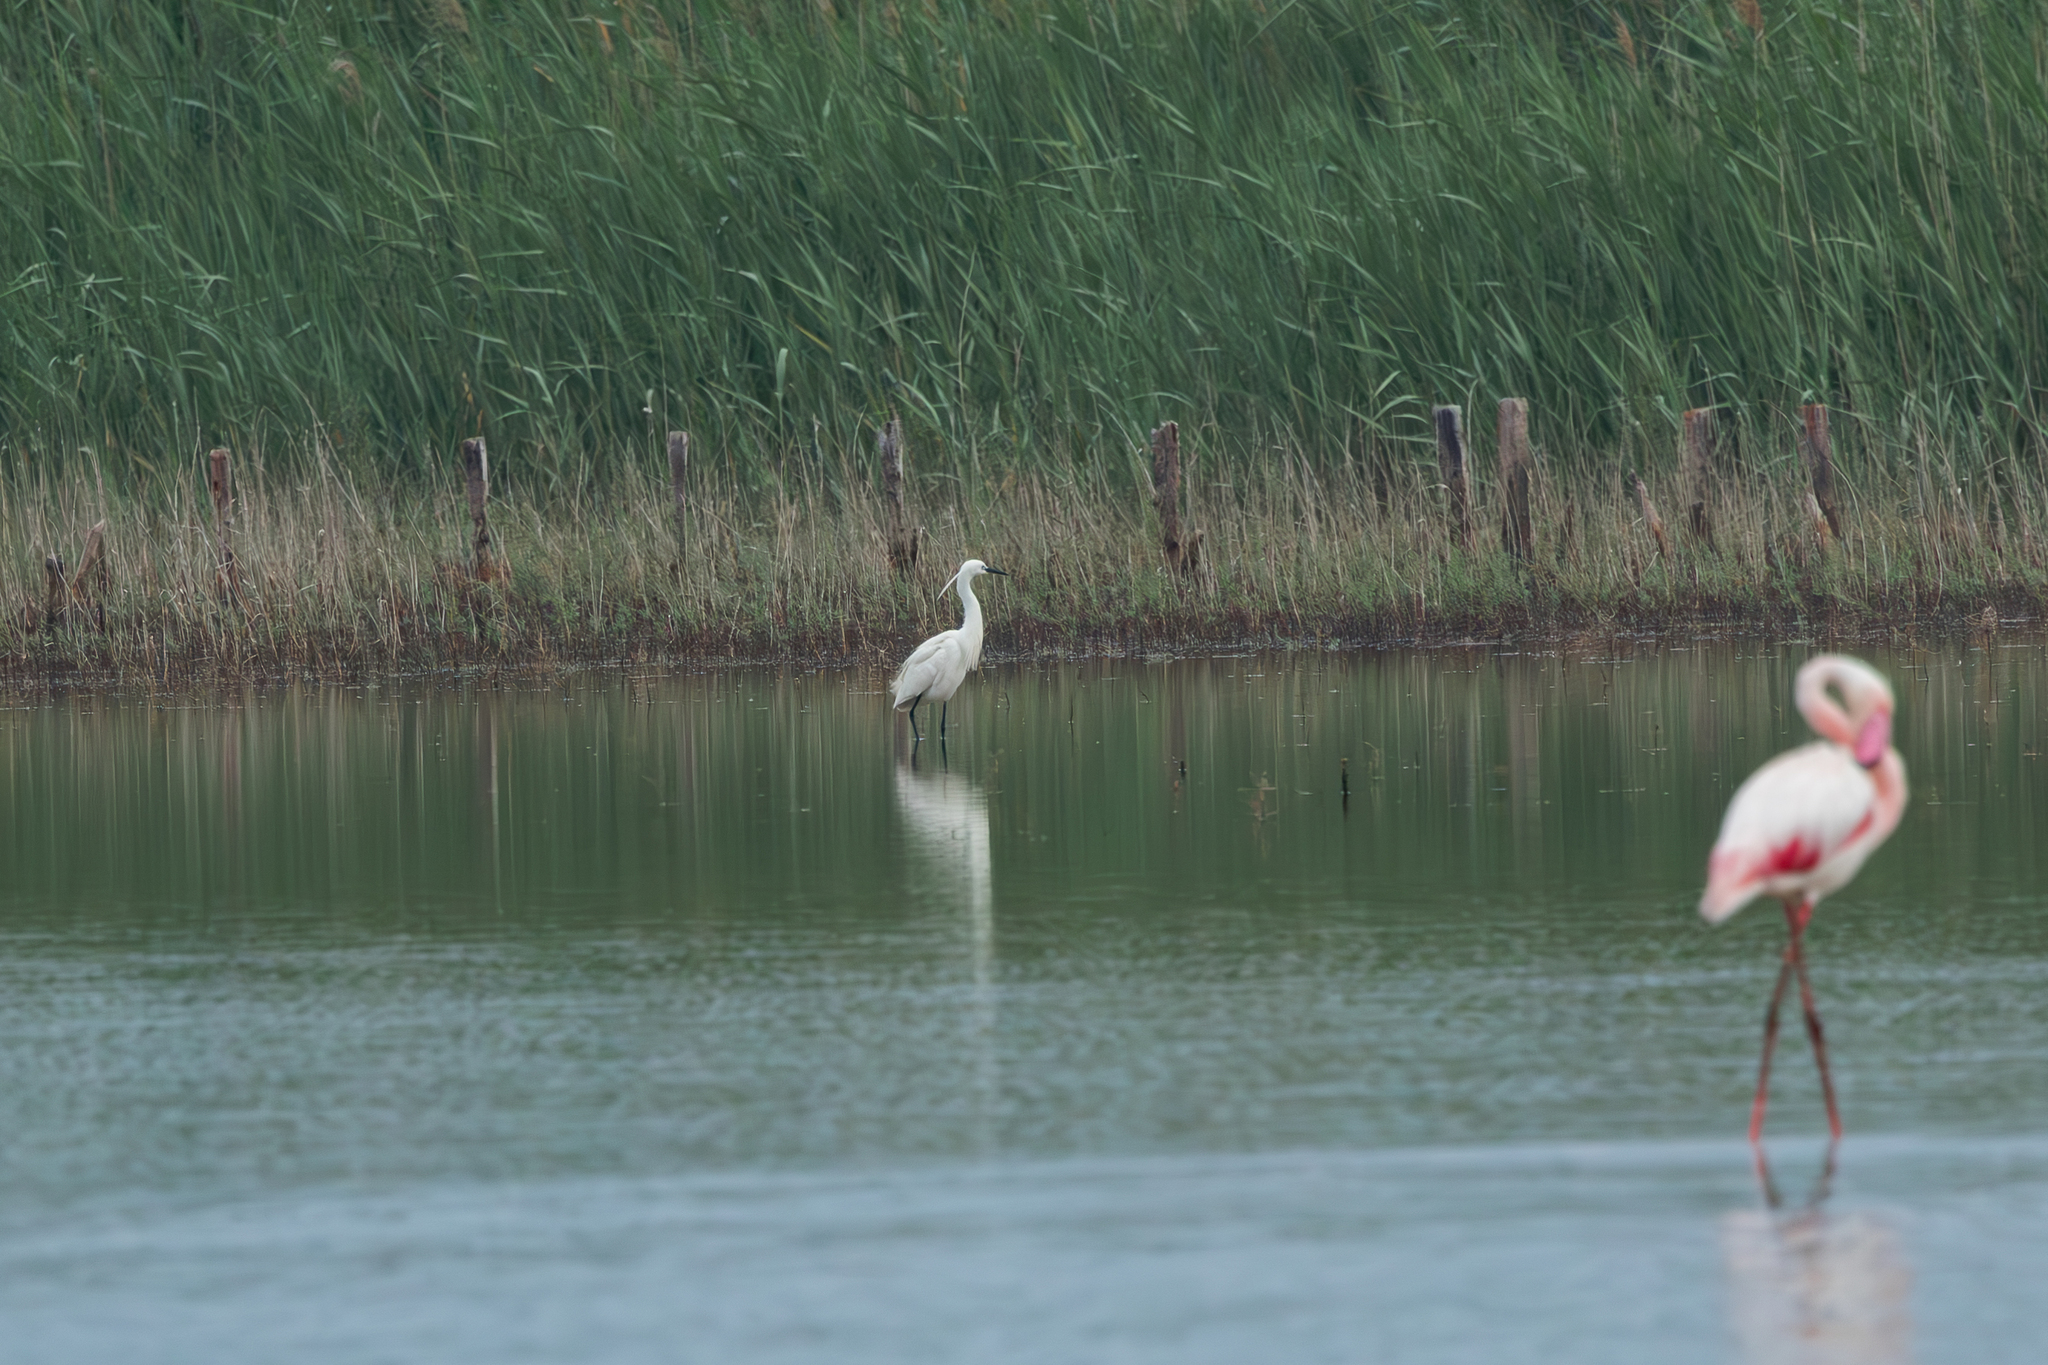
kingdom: Animalia
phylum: Chordata
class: Aves
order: Pelecaniformes
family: Ardeidae
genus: Egretta
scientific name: Egretta garzetta
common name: Little egret
